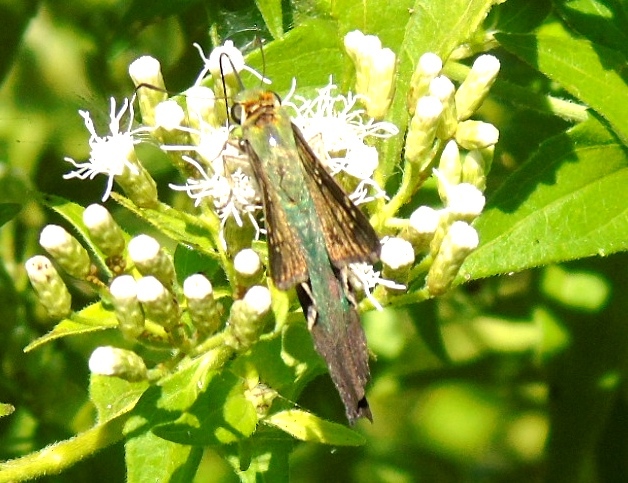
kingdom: Animalia
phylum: Arthropoda
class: Insecta
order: Lepidoptera
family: Hesperiidae
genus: Urbanus
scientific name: Urbanus proteus
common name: Long-tailed skipper
